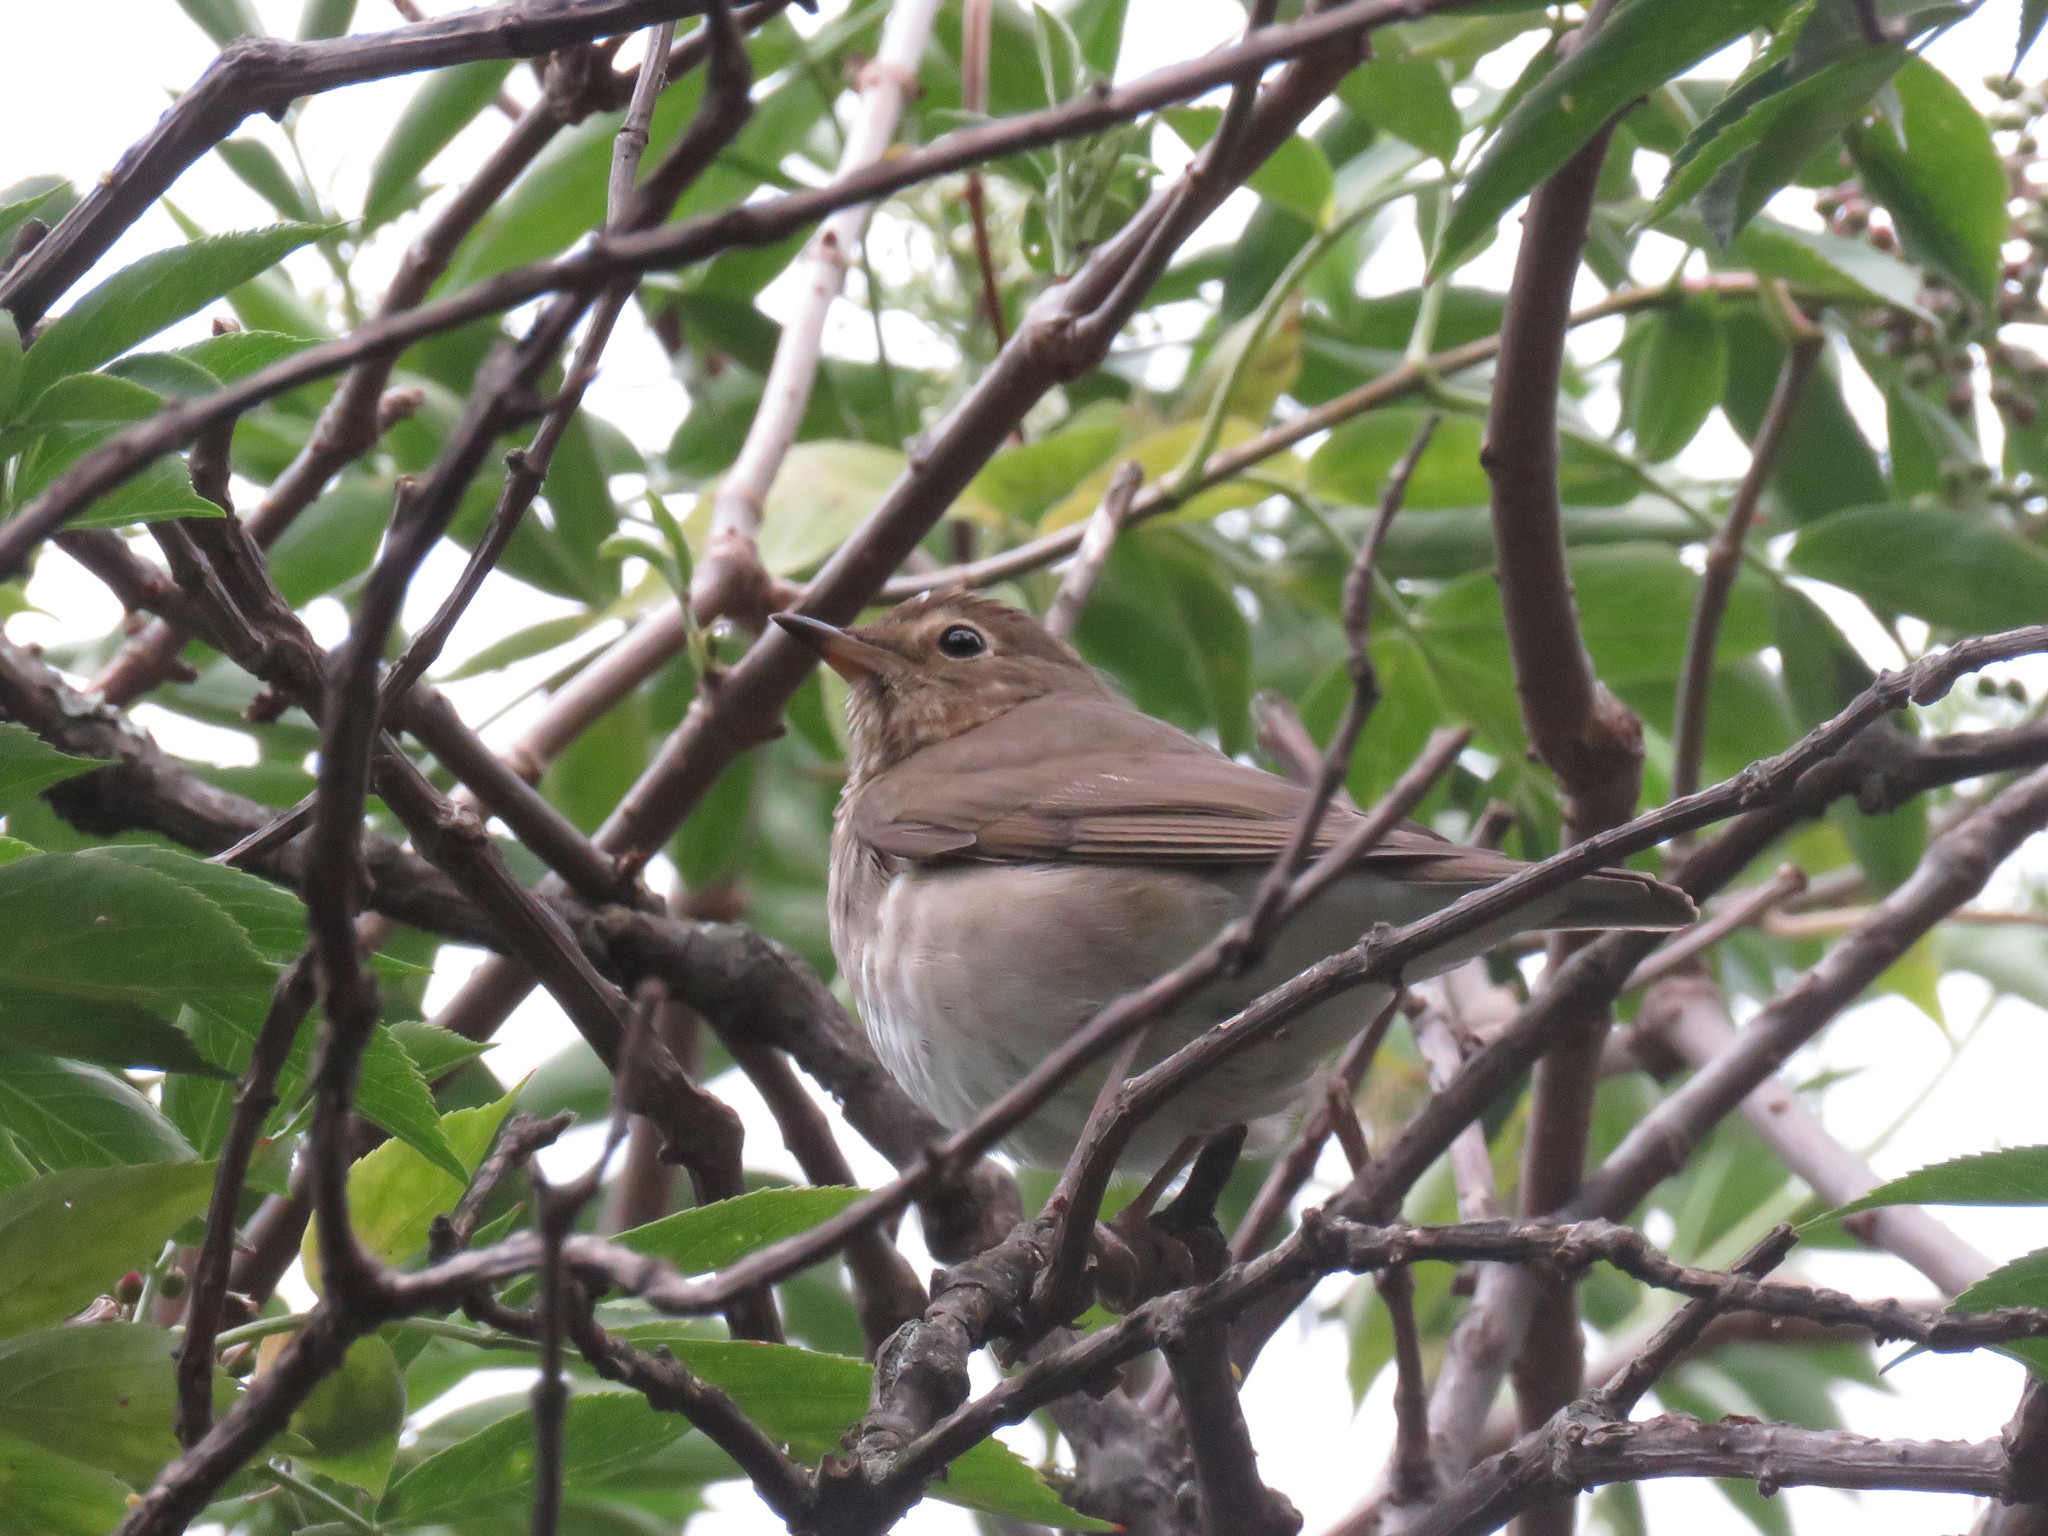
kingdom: Animalia
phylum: Chordata
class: Aves
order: Passeriformes
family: Turdidae
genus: Catharus
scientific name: Catharus ustulatus
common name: Swainson's thrush
